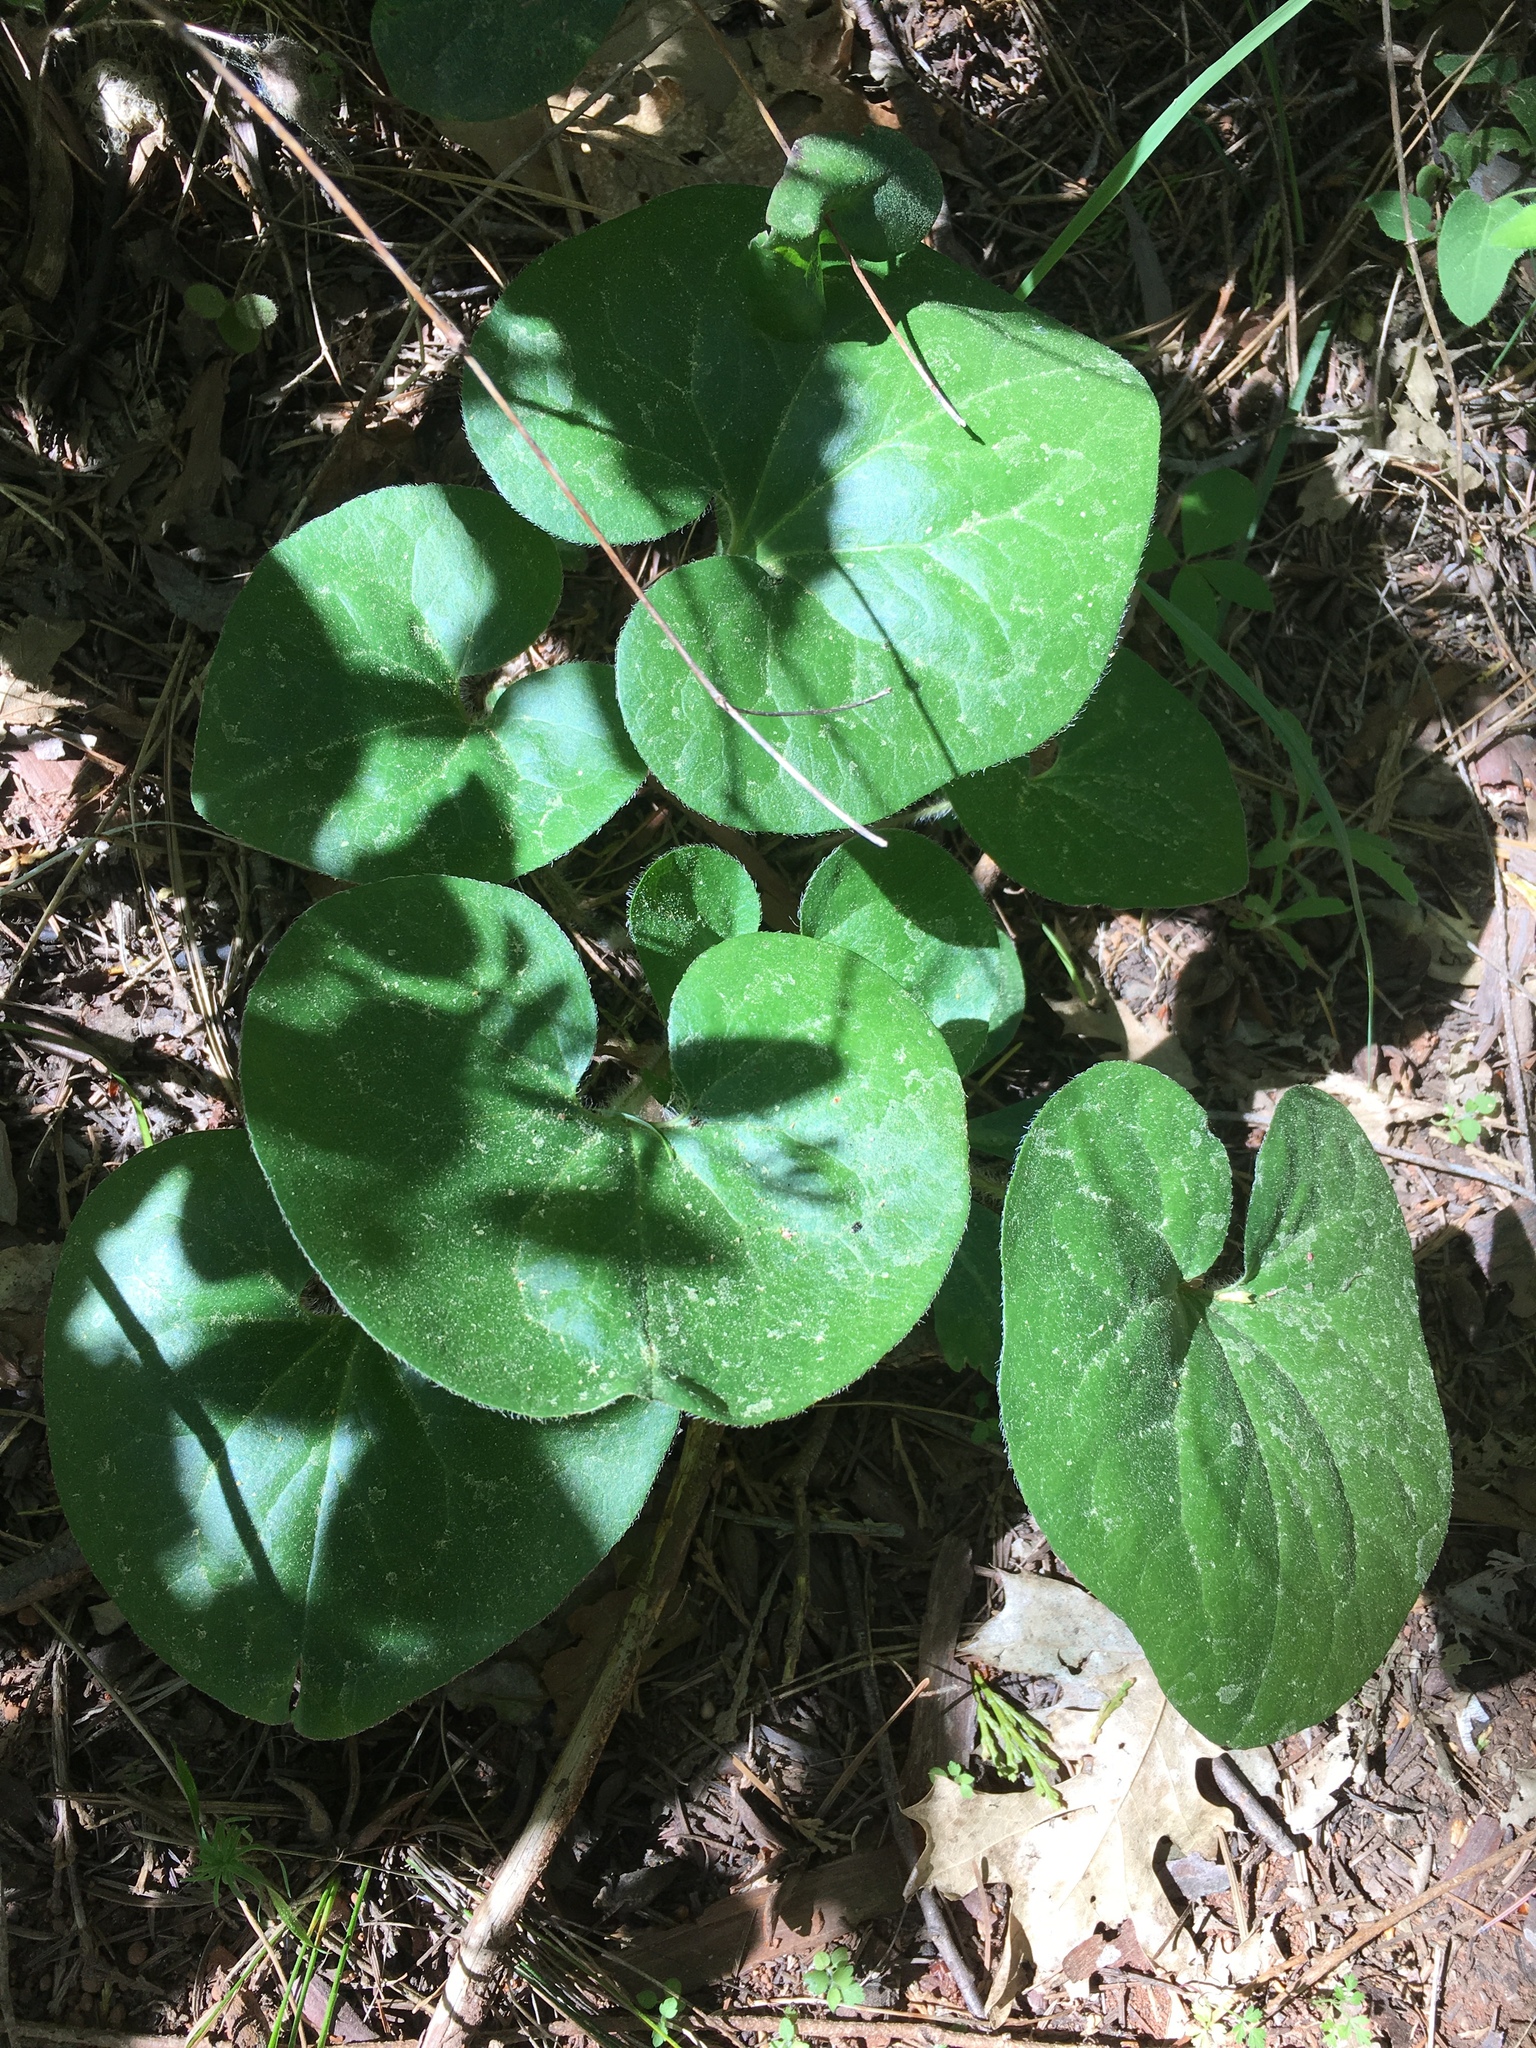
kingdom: Plantae
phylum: Tracheophyta
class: Magnoliopsida
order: Piperales
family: Aristolochiaceae
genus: Asarum
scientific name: Asarum hartwegii
